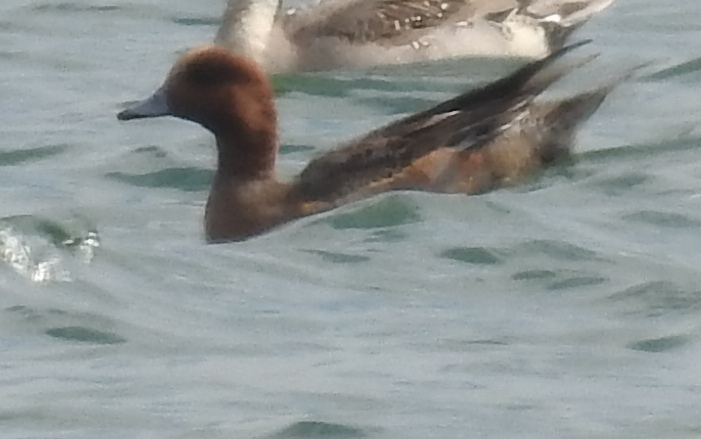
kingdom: Animalia
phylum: Chordata
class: Aves
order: Anseriformes
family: Anatidae
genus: Mareca
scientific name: Mareca penelope
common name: Eurasian wigeon
